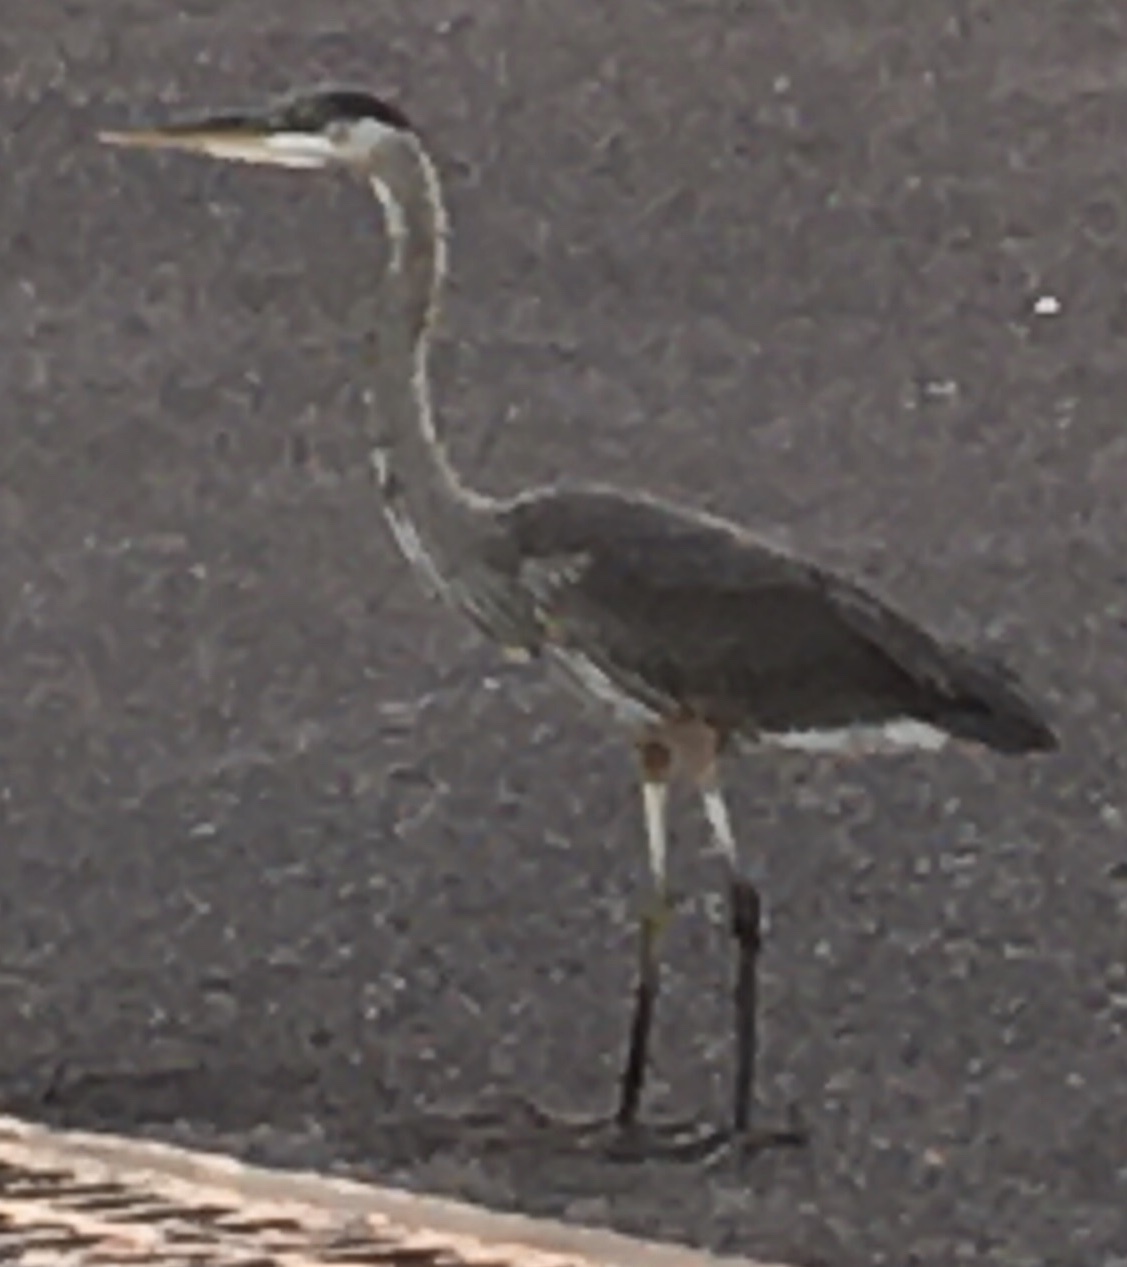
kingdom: Animalia
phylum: Chordata
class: Aves
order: Pelecaniformes
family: Ardeidae
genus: Ardea
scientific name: Ardea herodias
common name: Great blue heron
